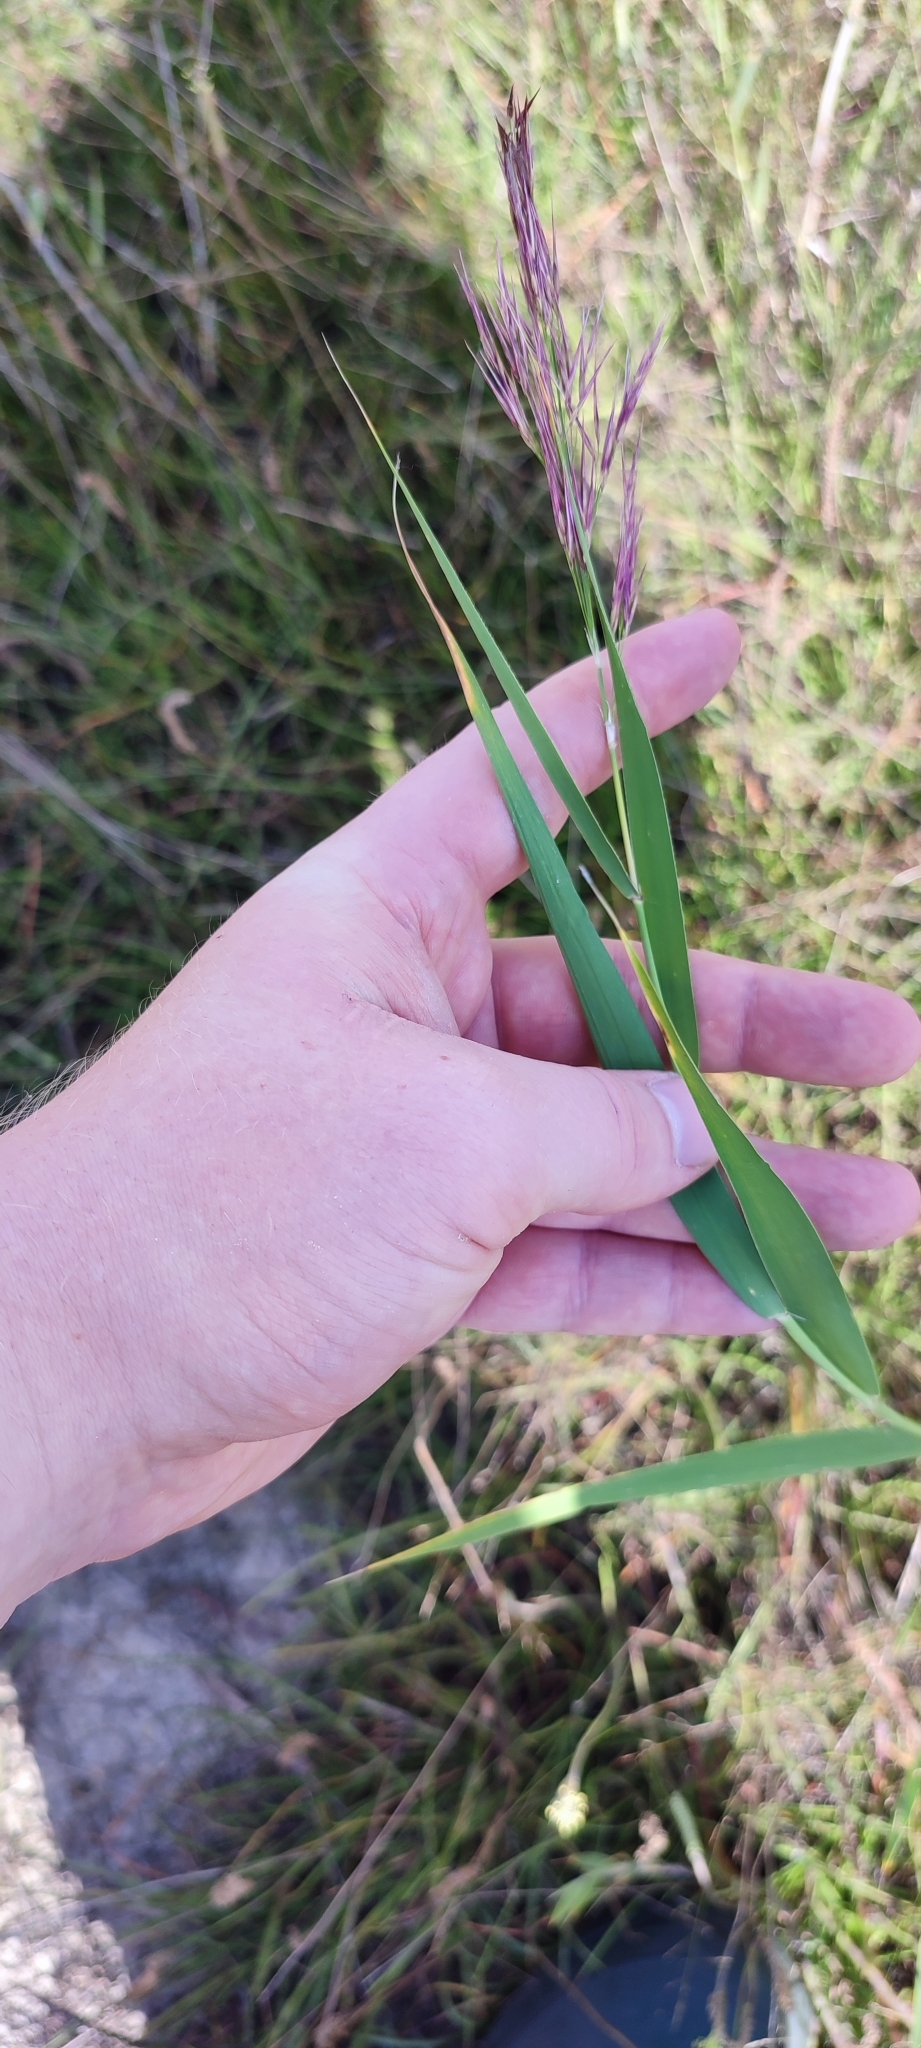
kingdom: Plantae
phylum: Tracheophyta
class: Liliopsida
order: Poales
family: Poaceae
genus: Phragmites
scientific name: Phragmites australis
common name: Common reed
